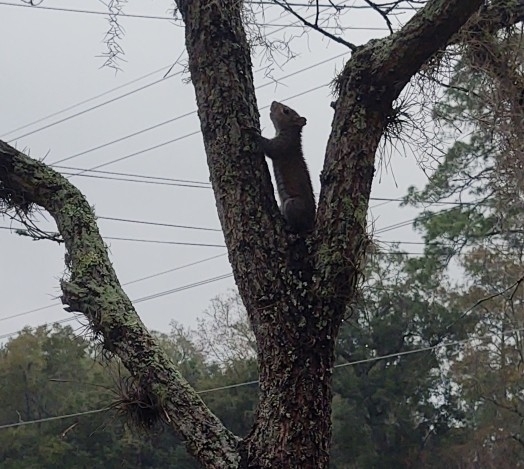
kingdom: Animalia
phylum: Chordata
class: Mammalia
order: Rodentia
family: Sciuridae
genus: Sciurus
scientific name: Sciurus carolinensis
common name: Eastern gray squirrel
